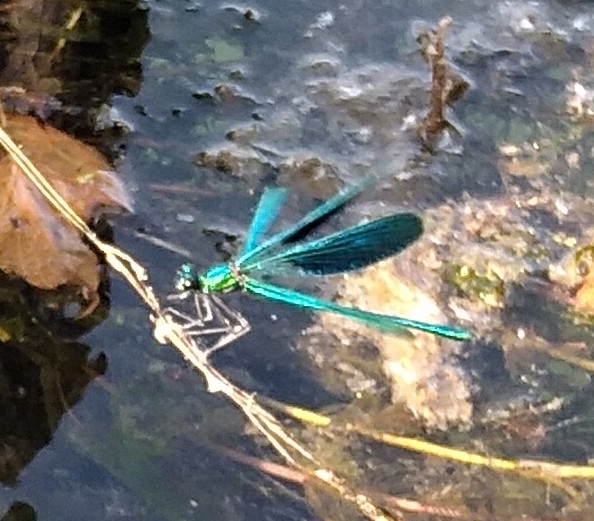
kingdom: Animalia
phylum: Arthropoda
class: Insecta
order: Odonata
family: Calopterygidae
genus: Calopteryx
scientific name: Calopteryx splendens
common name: Banded demoiselle
